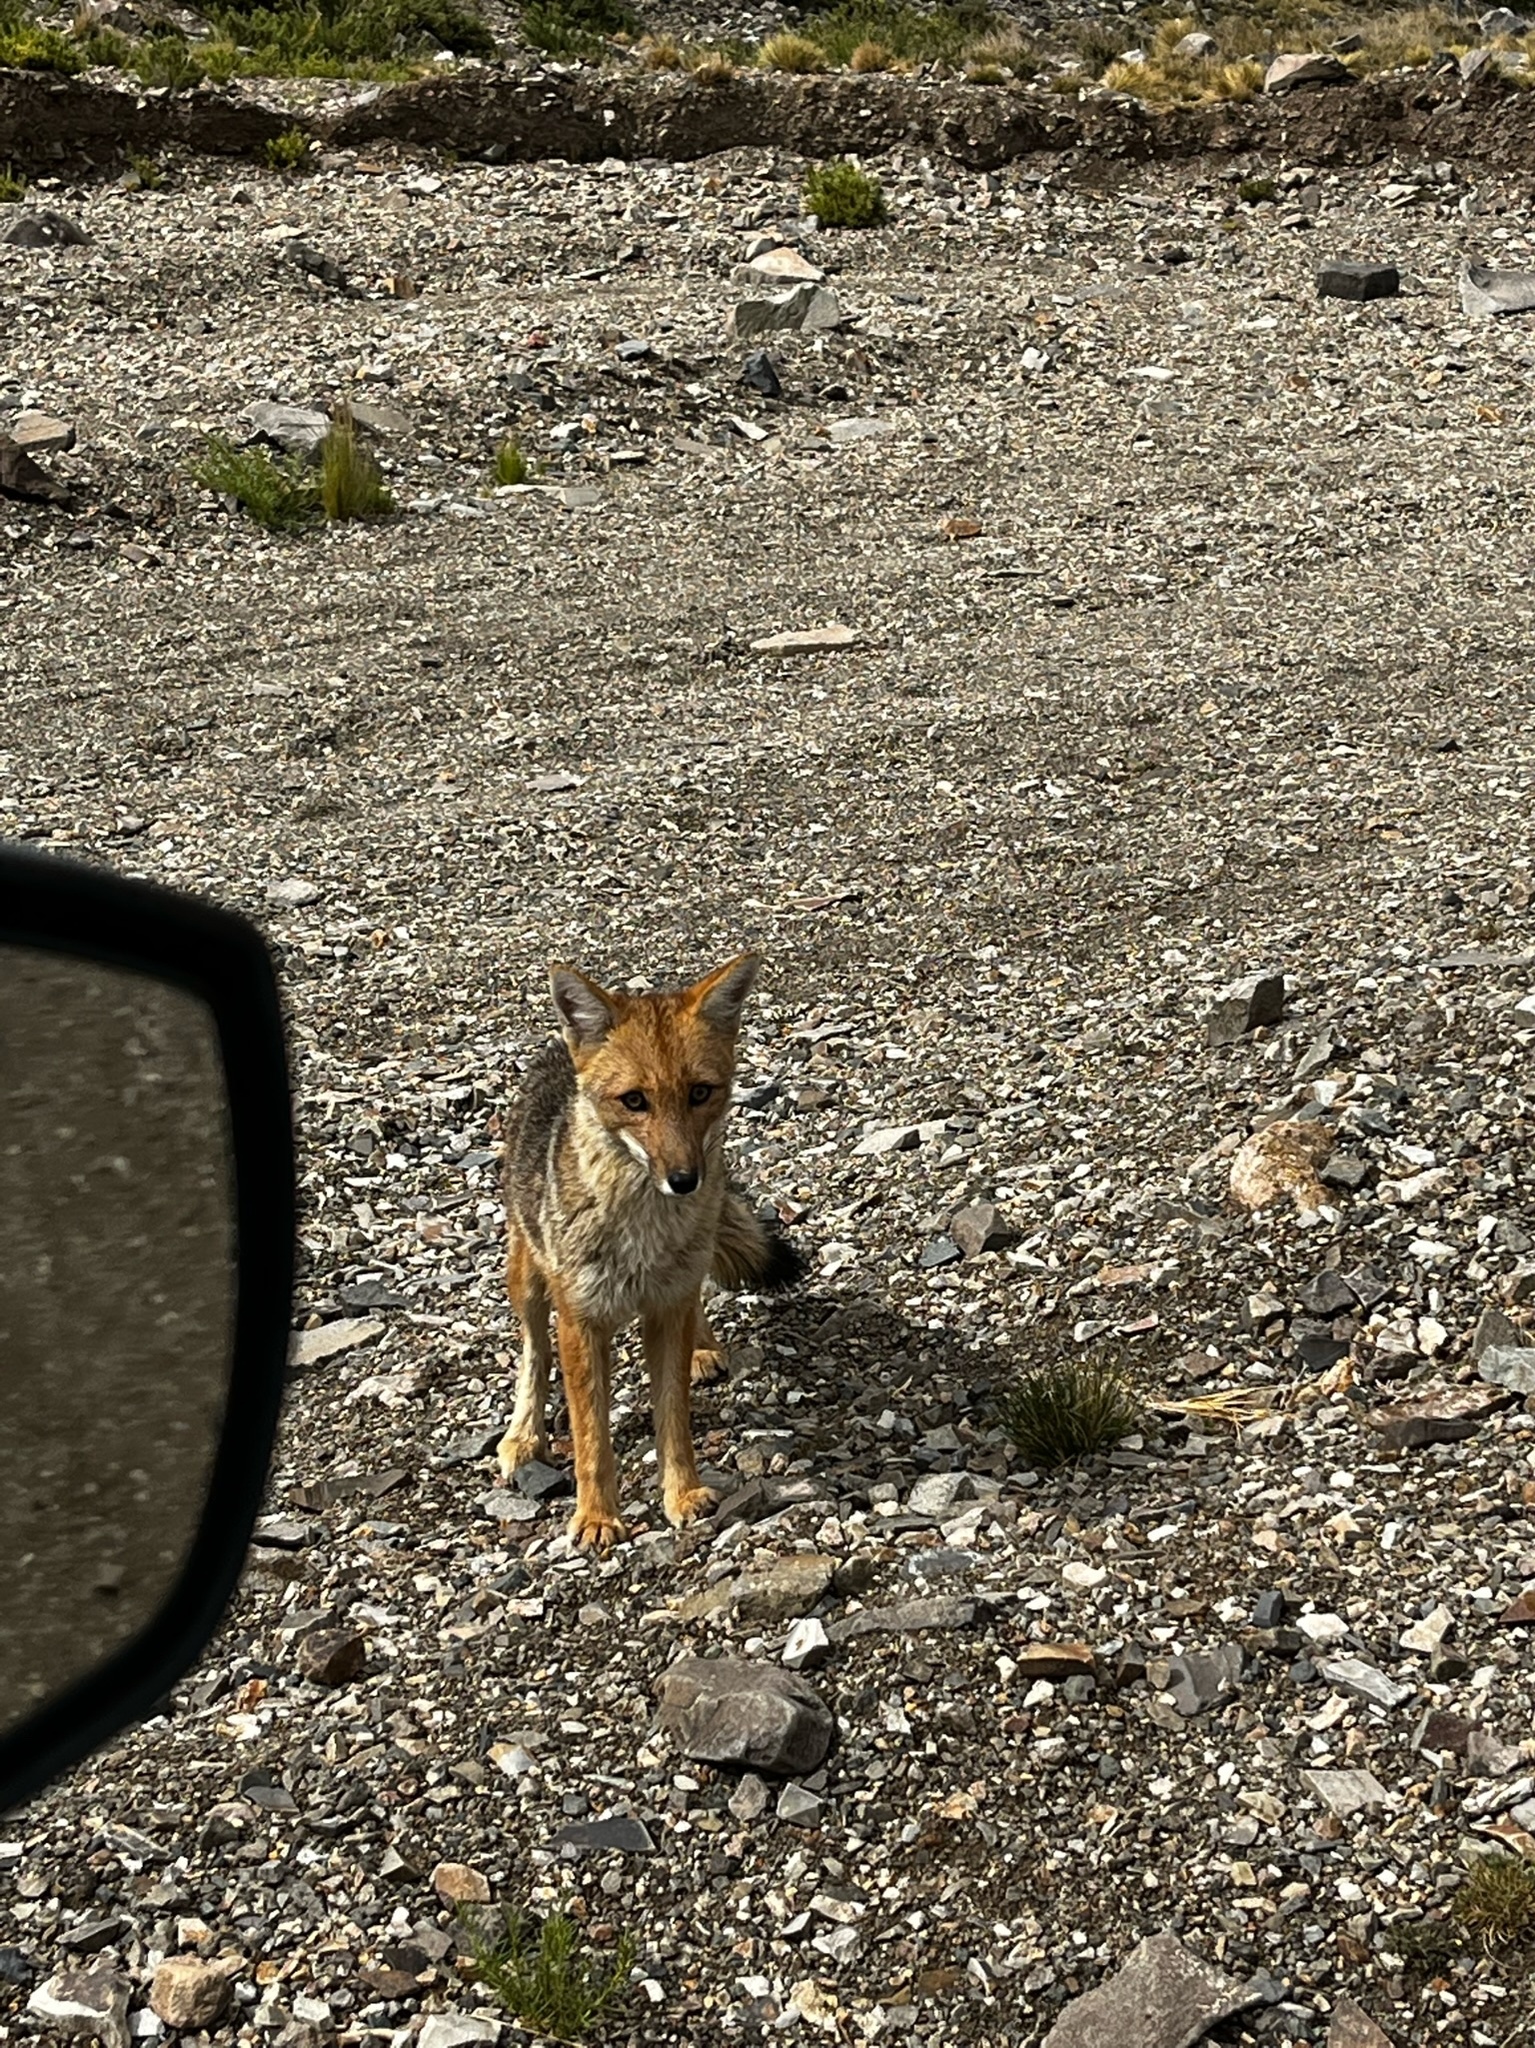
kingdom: Animalia
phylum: Chordata
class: Mammalia
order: Carnivora
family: Canidae
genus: Lycalopex
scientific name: Lycalopex culpaeus
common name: Culpeo
